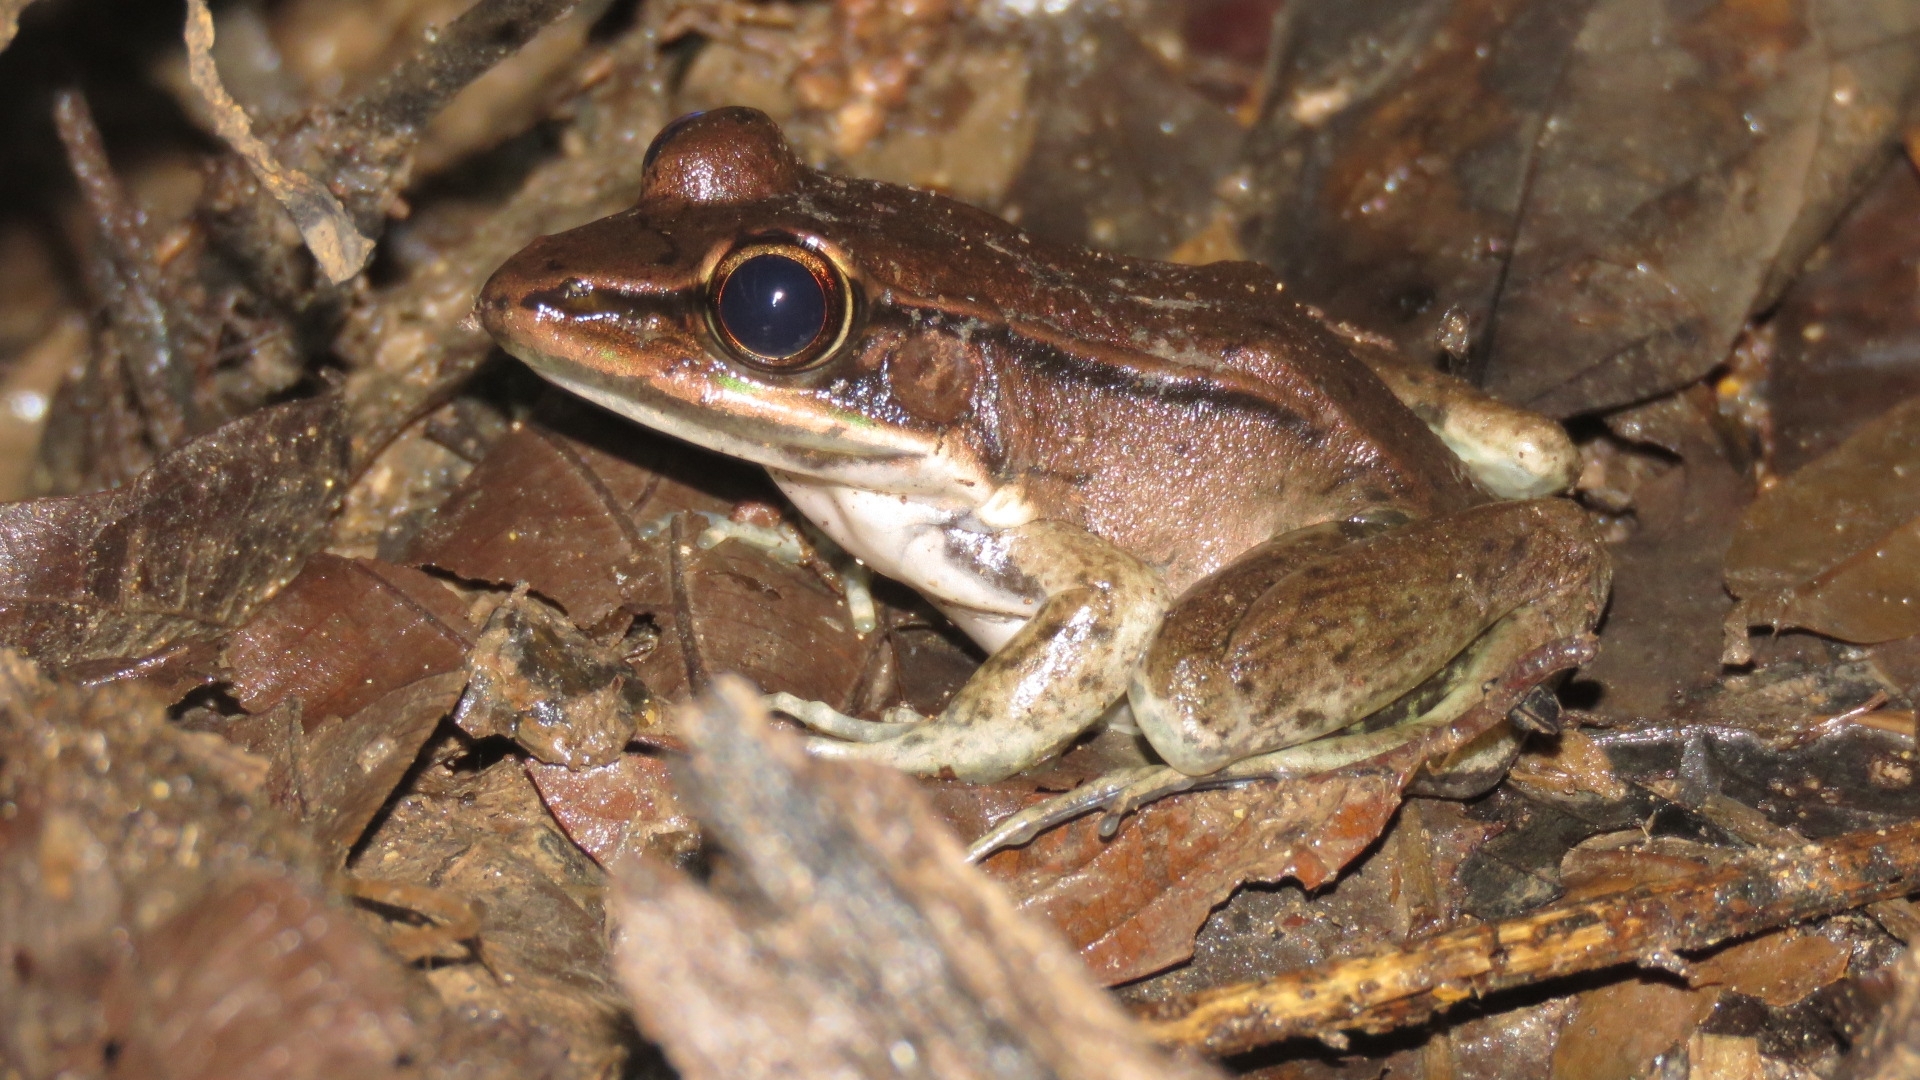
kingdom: Animalia
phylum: Chordata
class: Amphibia
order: Anura
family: Ranidae
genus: Lithobates
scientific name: Lithobates vaillanti
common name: Vaillant's frog
